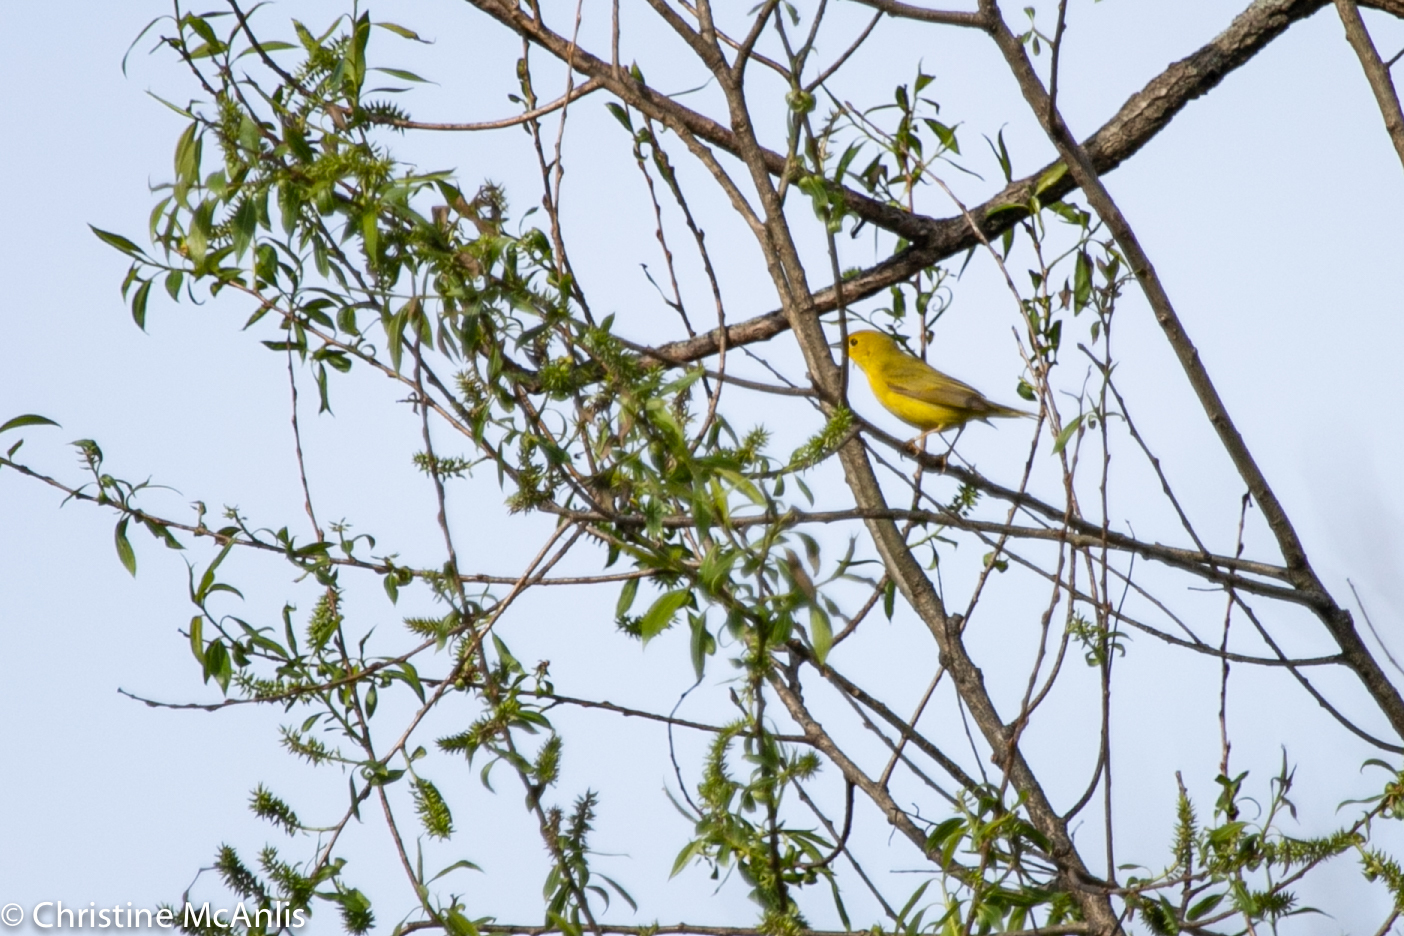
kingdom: Animalia
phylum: Chordata
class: Aves
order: Passeriformes
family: Parulidae
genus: Setophaga
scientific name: Setophaga petechia
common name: Yellow warbler
